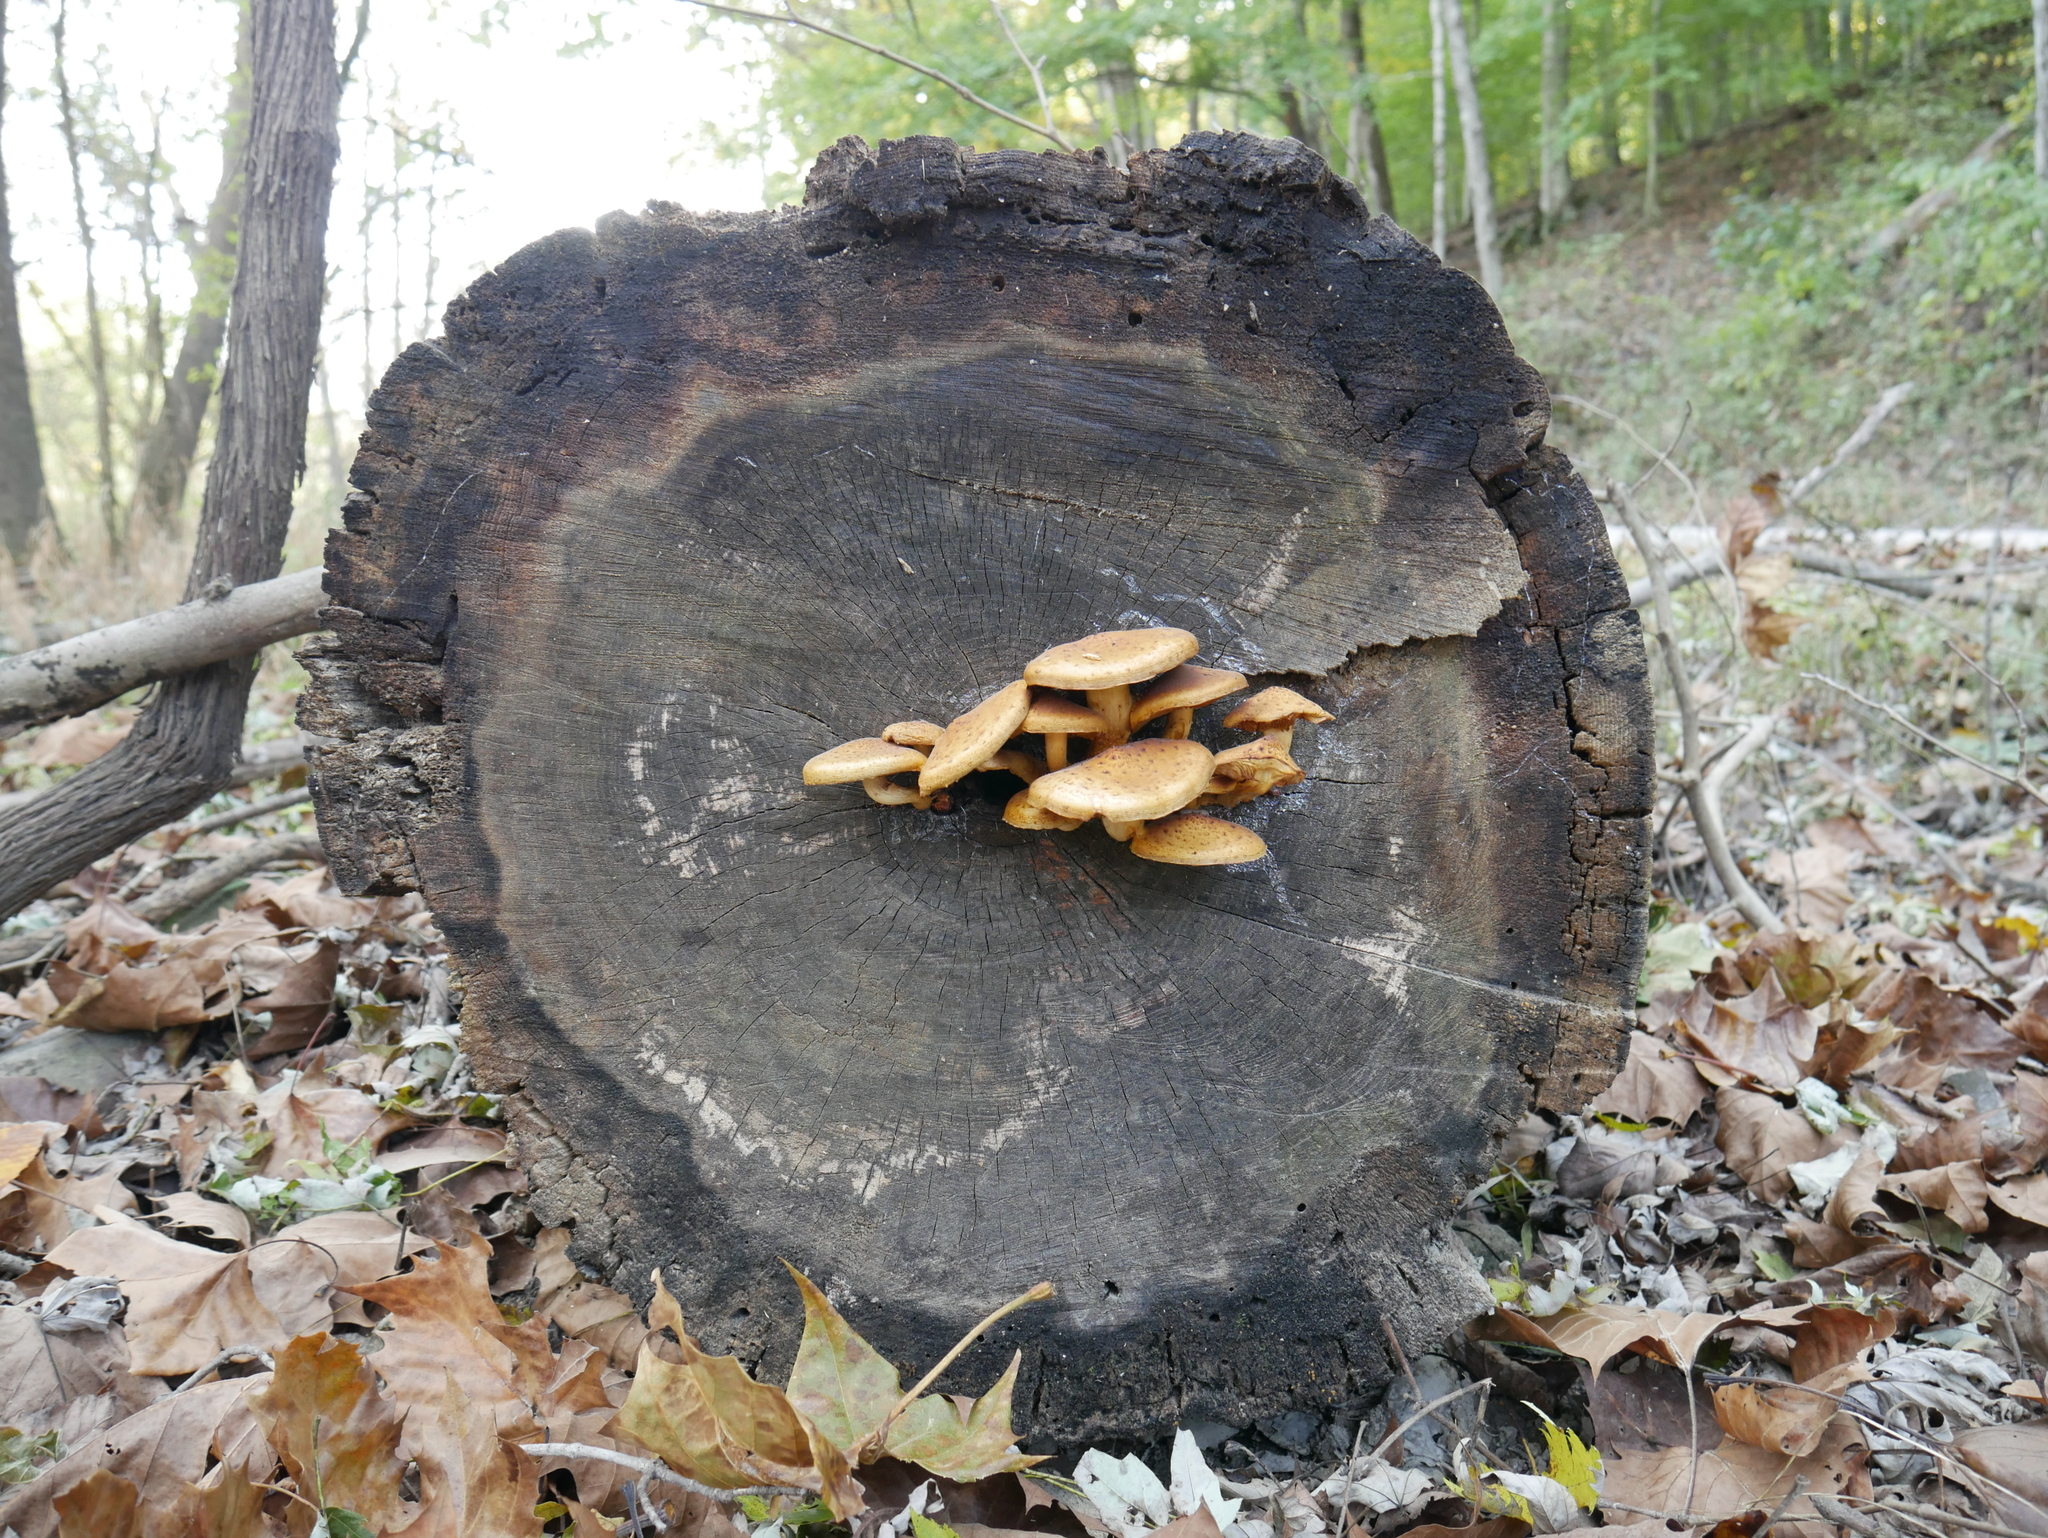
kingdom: Fungi
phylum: Basidiomycota
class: Agaricomycetes
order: Agaricales
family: Strophariaceae
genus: Pholiota
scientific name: Pholiota aurivella
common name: Golden scalycap
